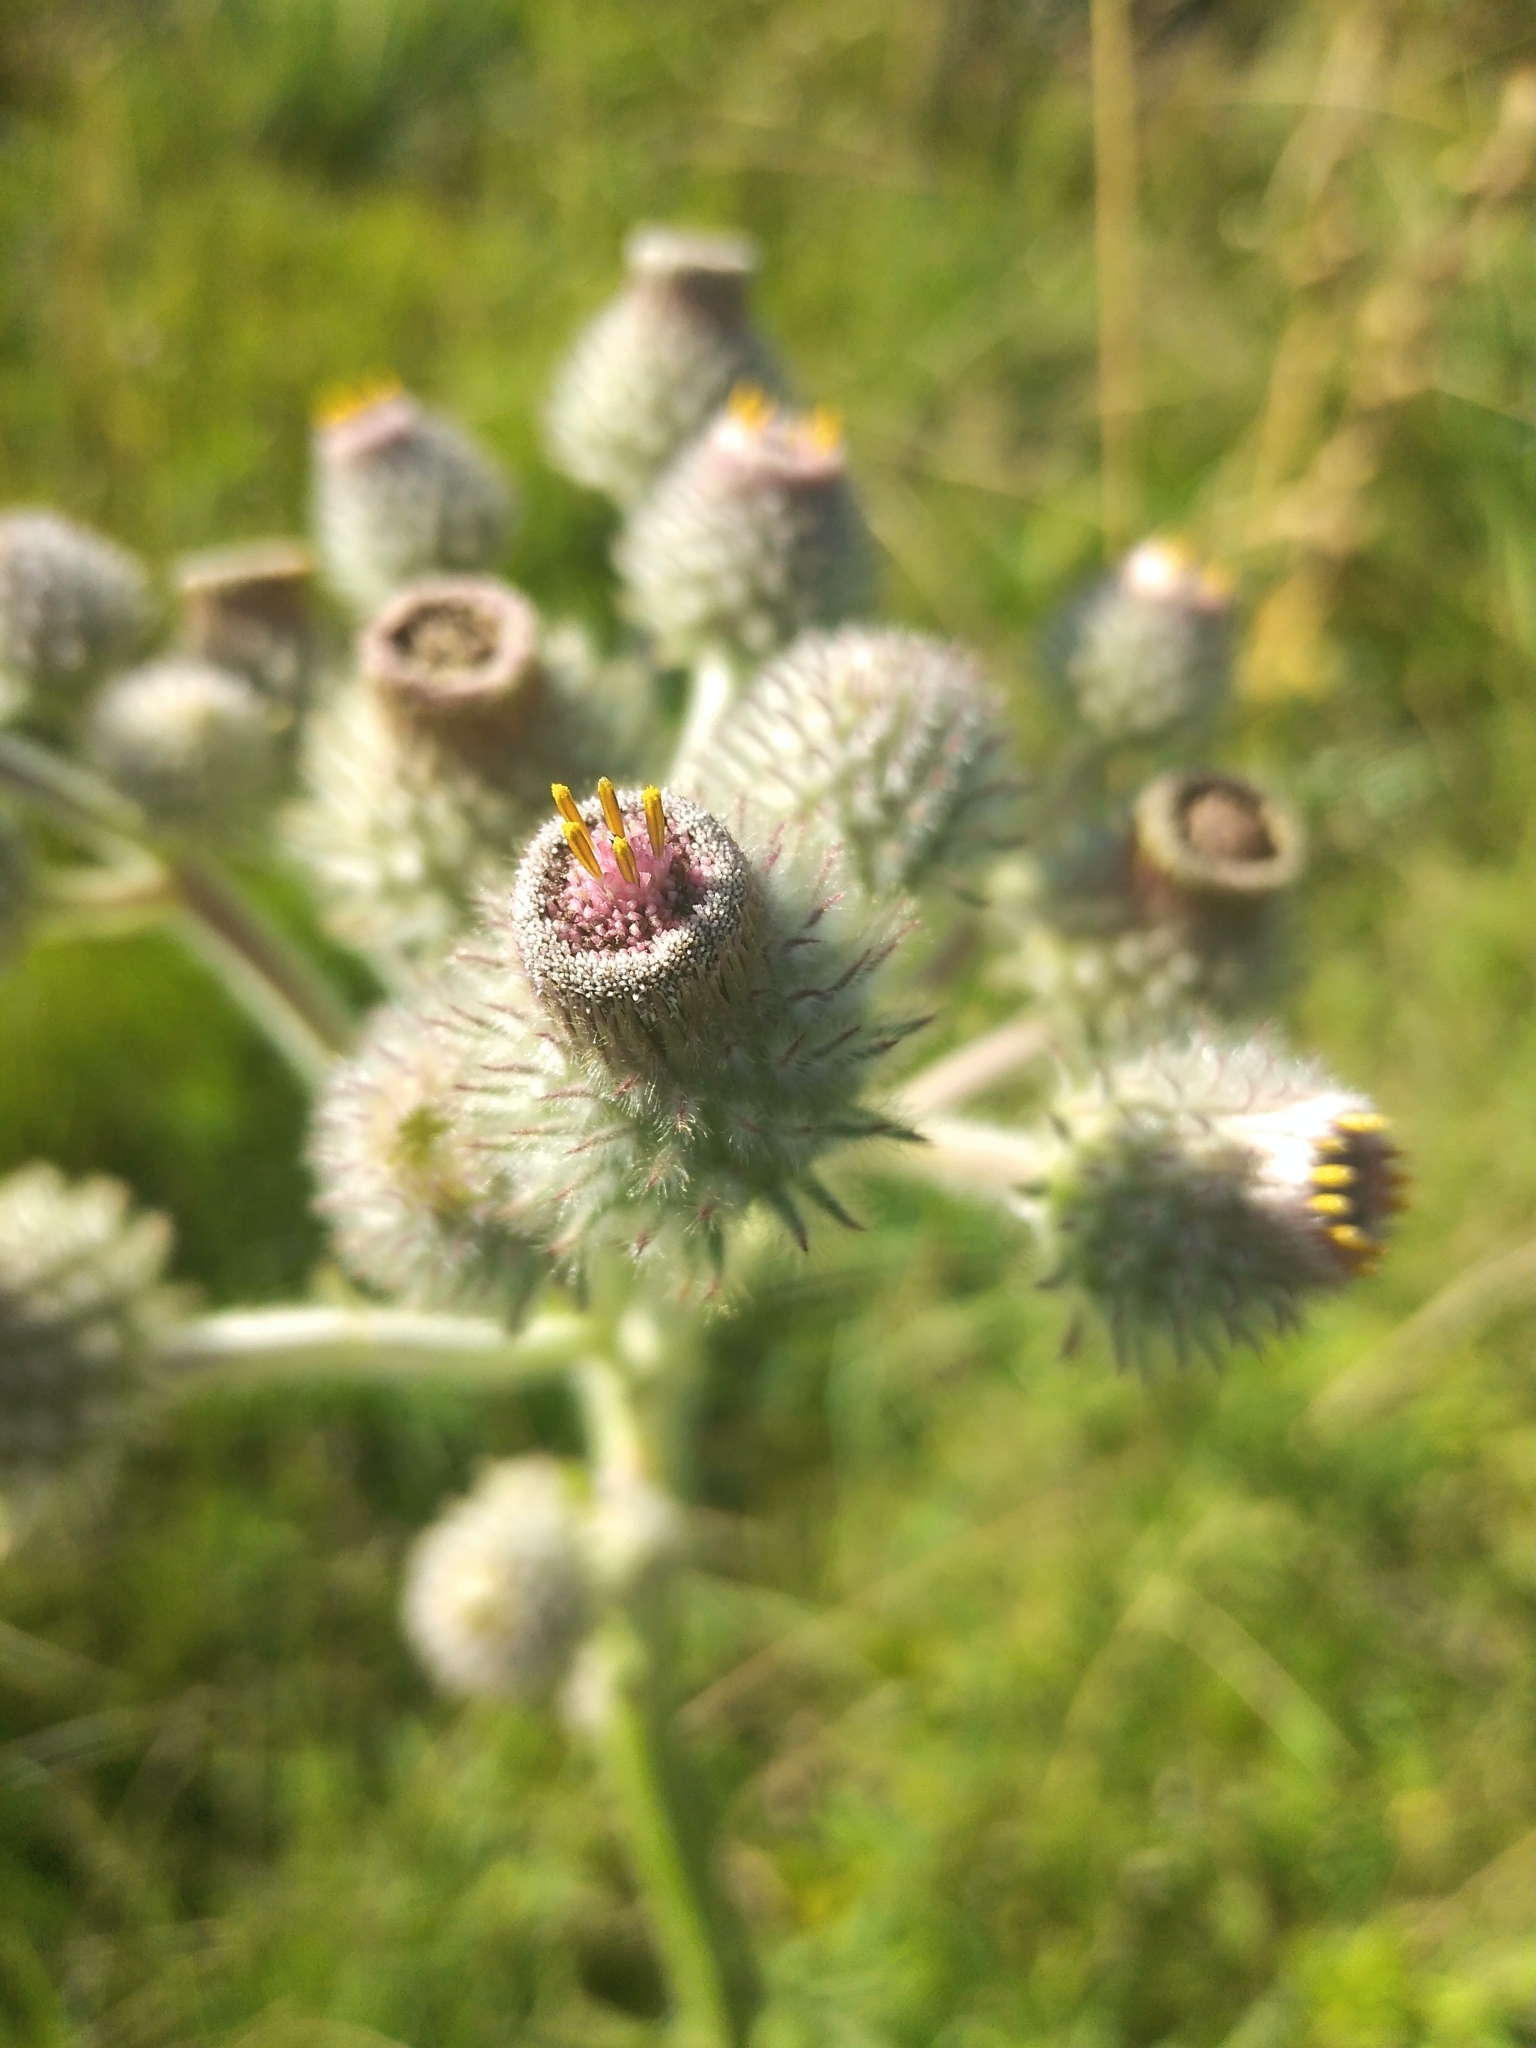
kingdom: Plantae
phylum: Tracheophyta
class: Magnoliopsida
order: Asterales
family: Asteraceae
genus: Stenachaenium
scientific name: Stenachaenium macrocephalum
